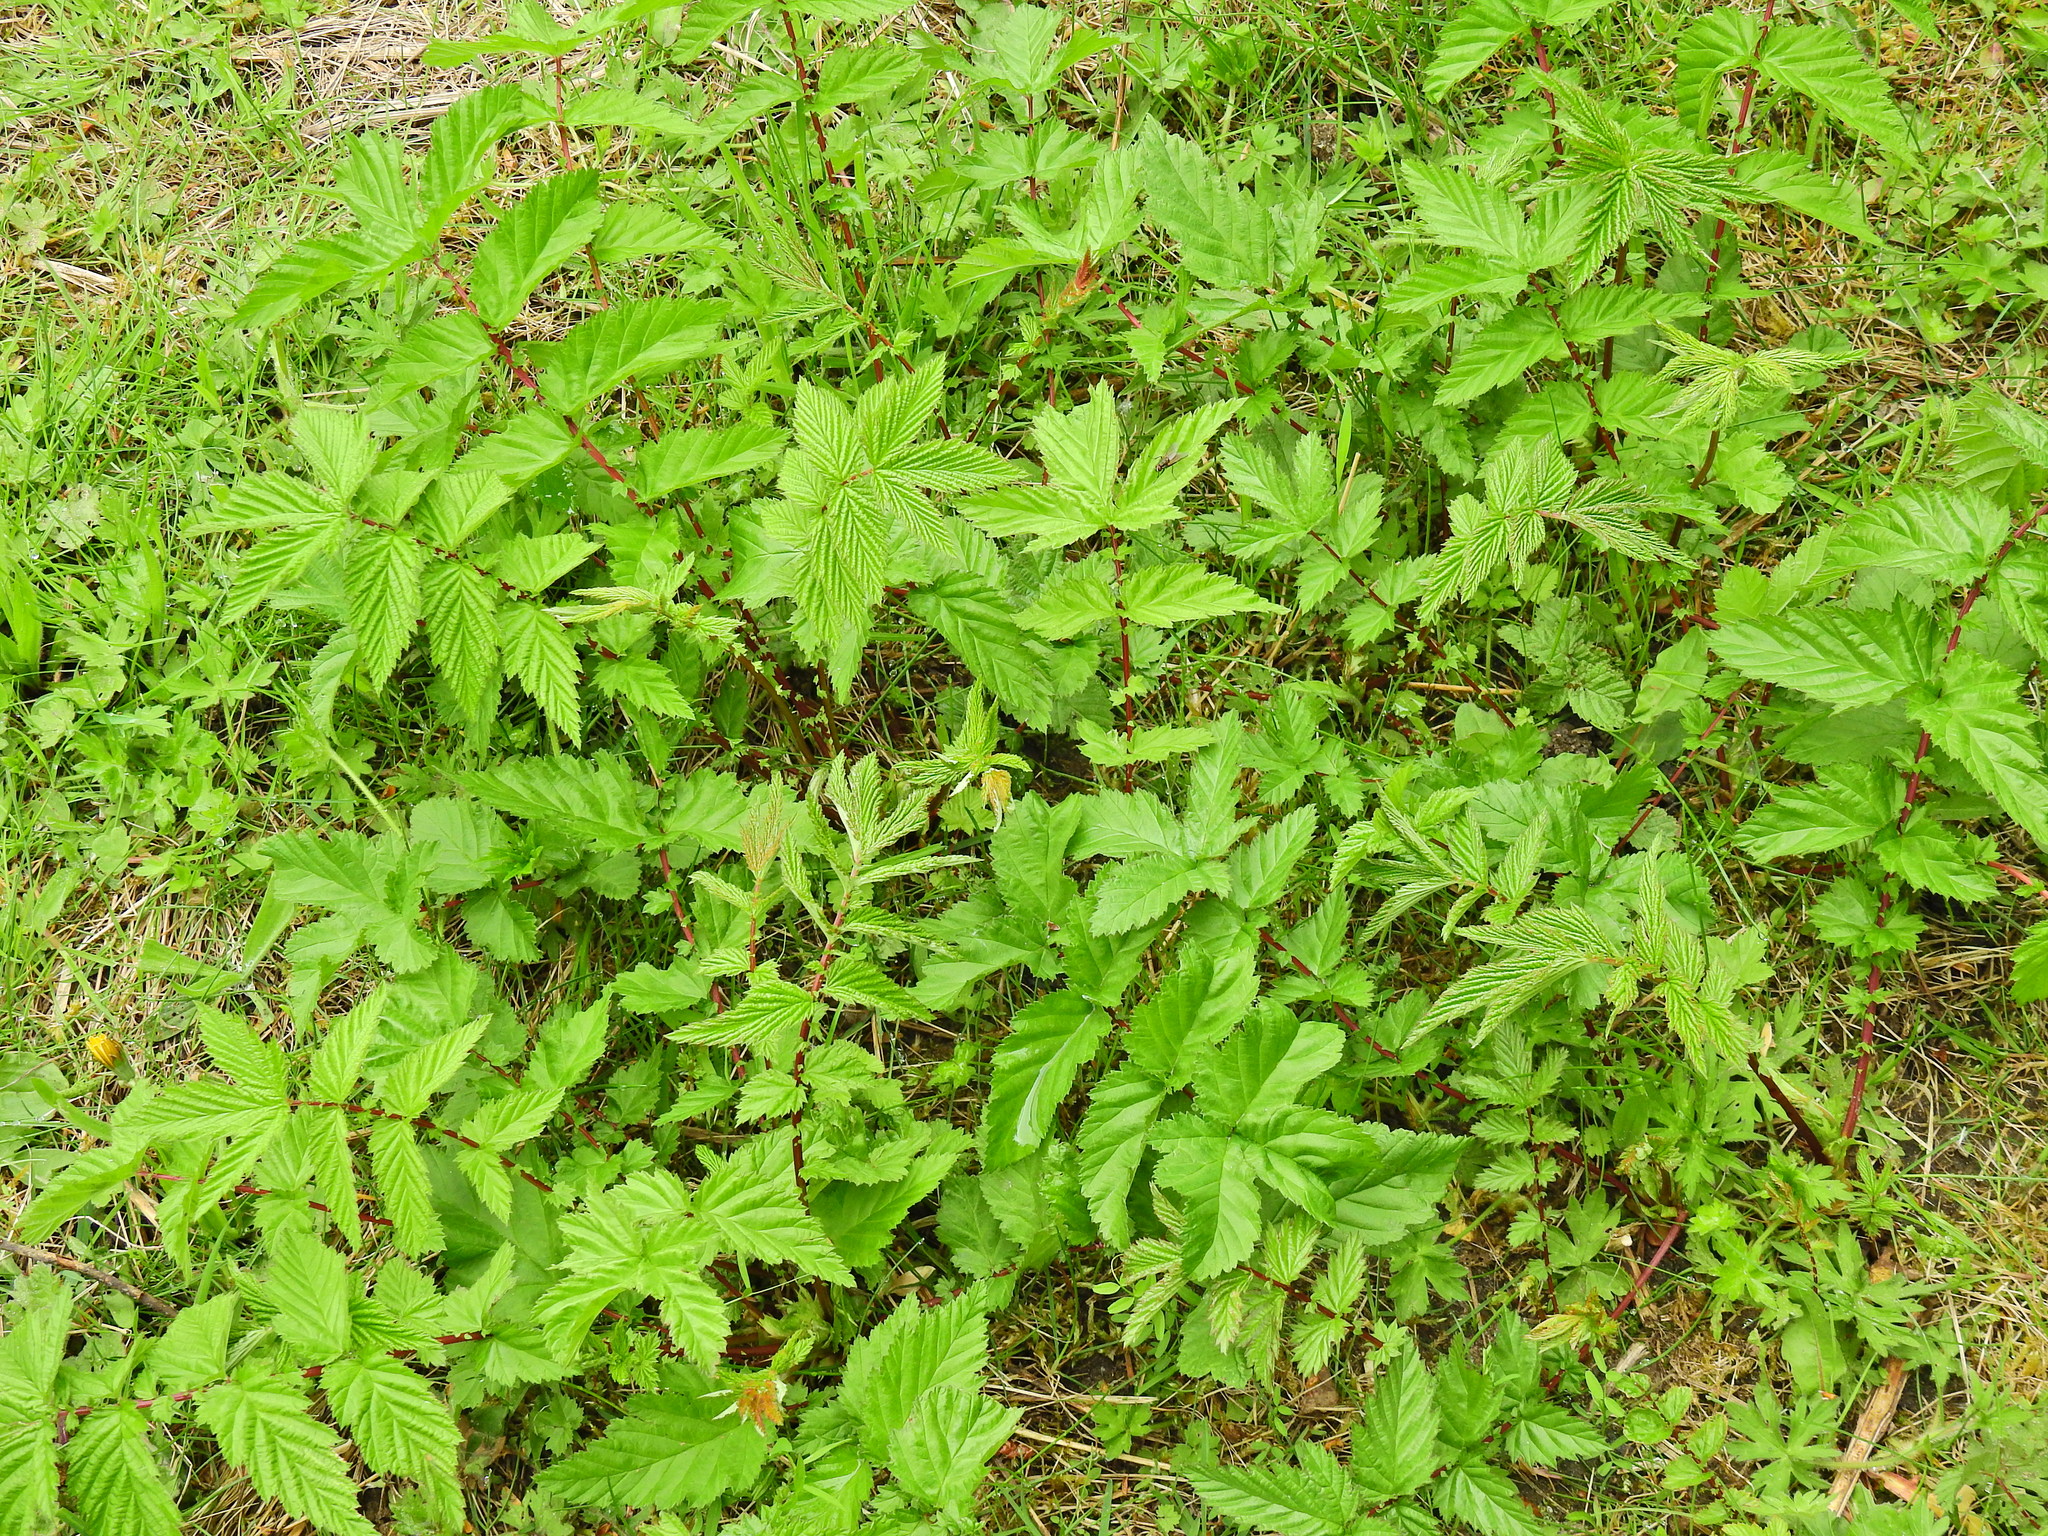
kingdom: Plantae
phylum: Tracheophyta
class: Magnoliopsida
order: Rosales
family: Rosaceae
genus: Filipendula
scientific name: Filipendula ulmaria
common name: Meadowsweet
